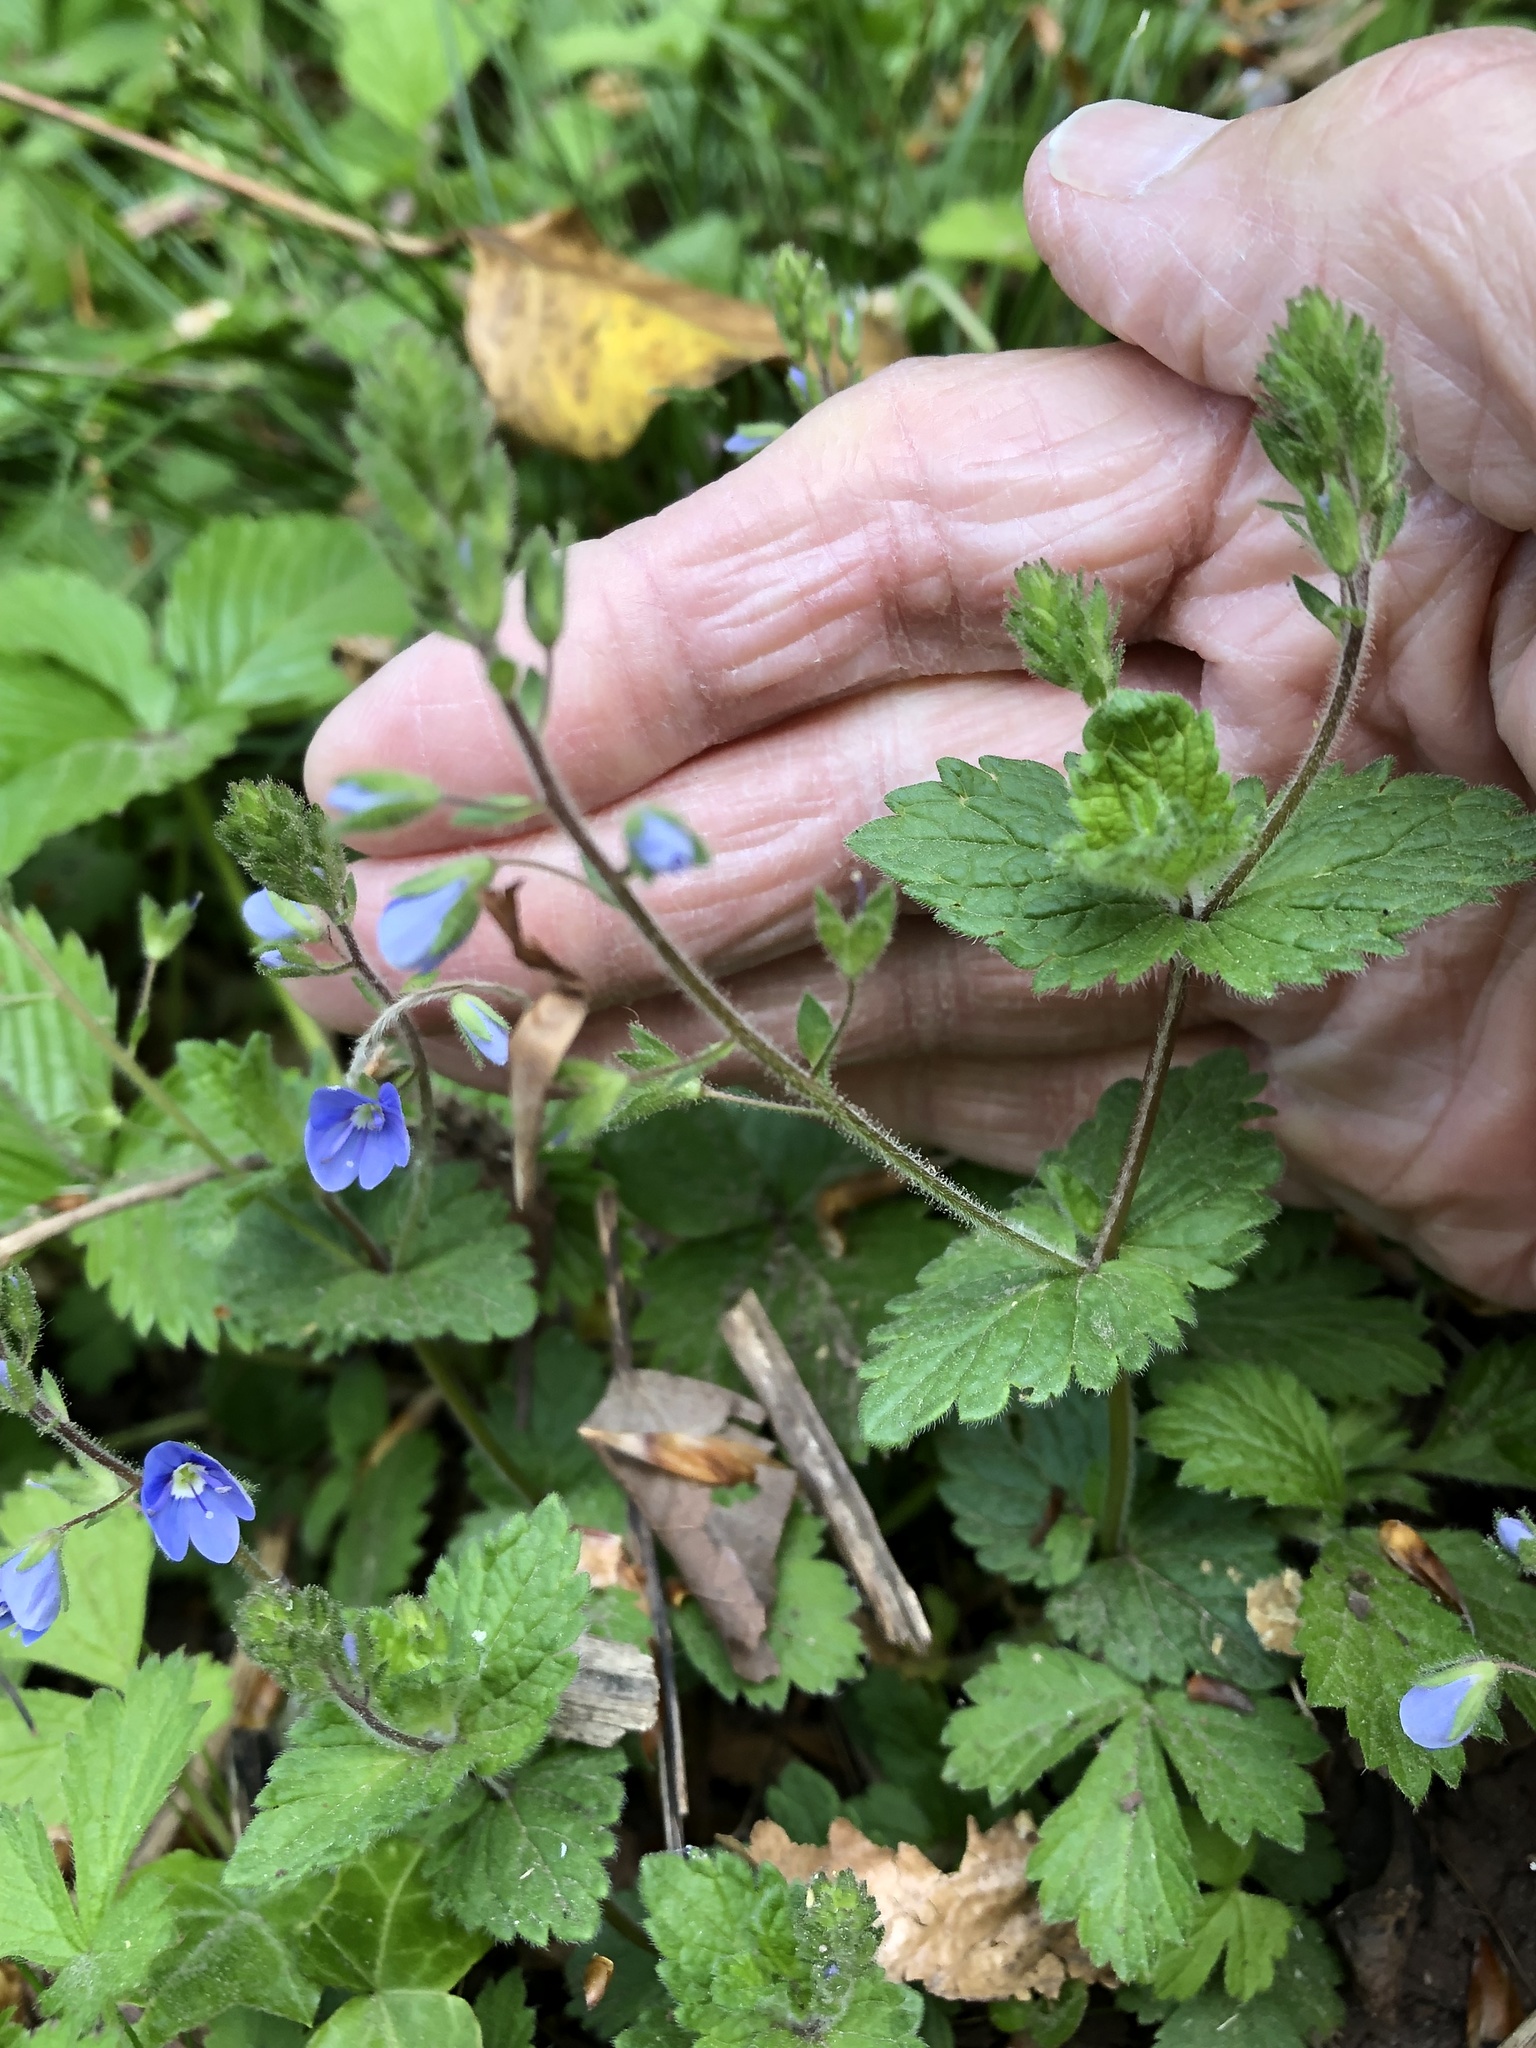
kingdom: Plantae
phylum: Tracheophyta
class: Magnoliopsida
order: Lamiales
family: Plantaginaceae
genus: Veronica
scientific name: Veronica chamaedrys
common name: Germander speedwell
